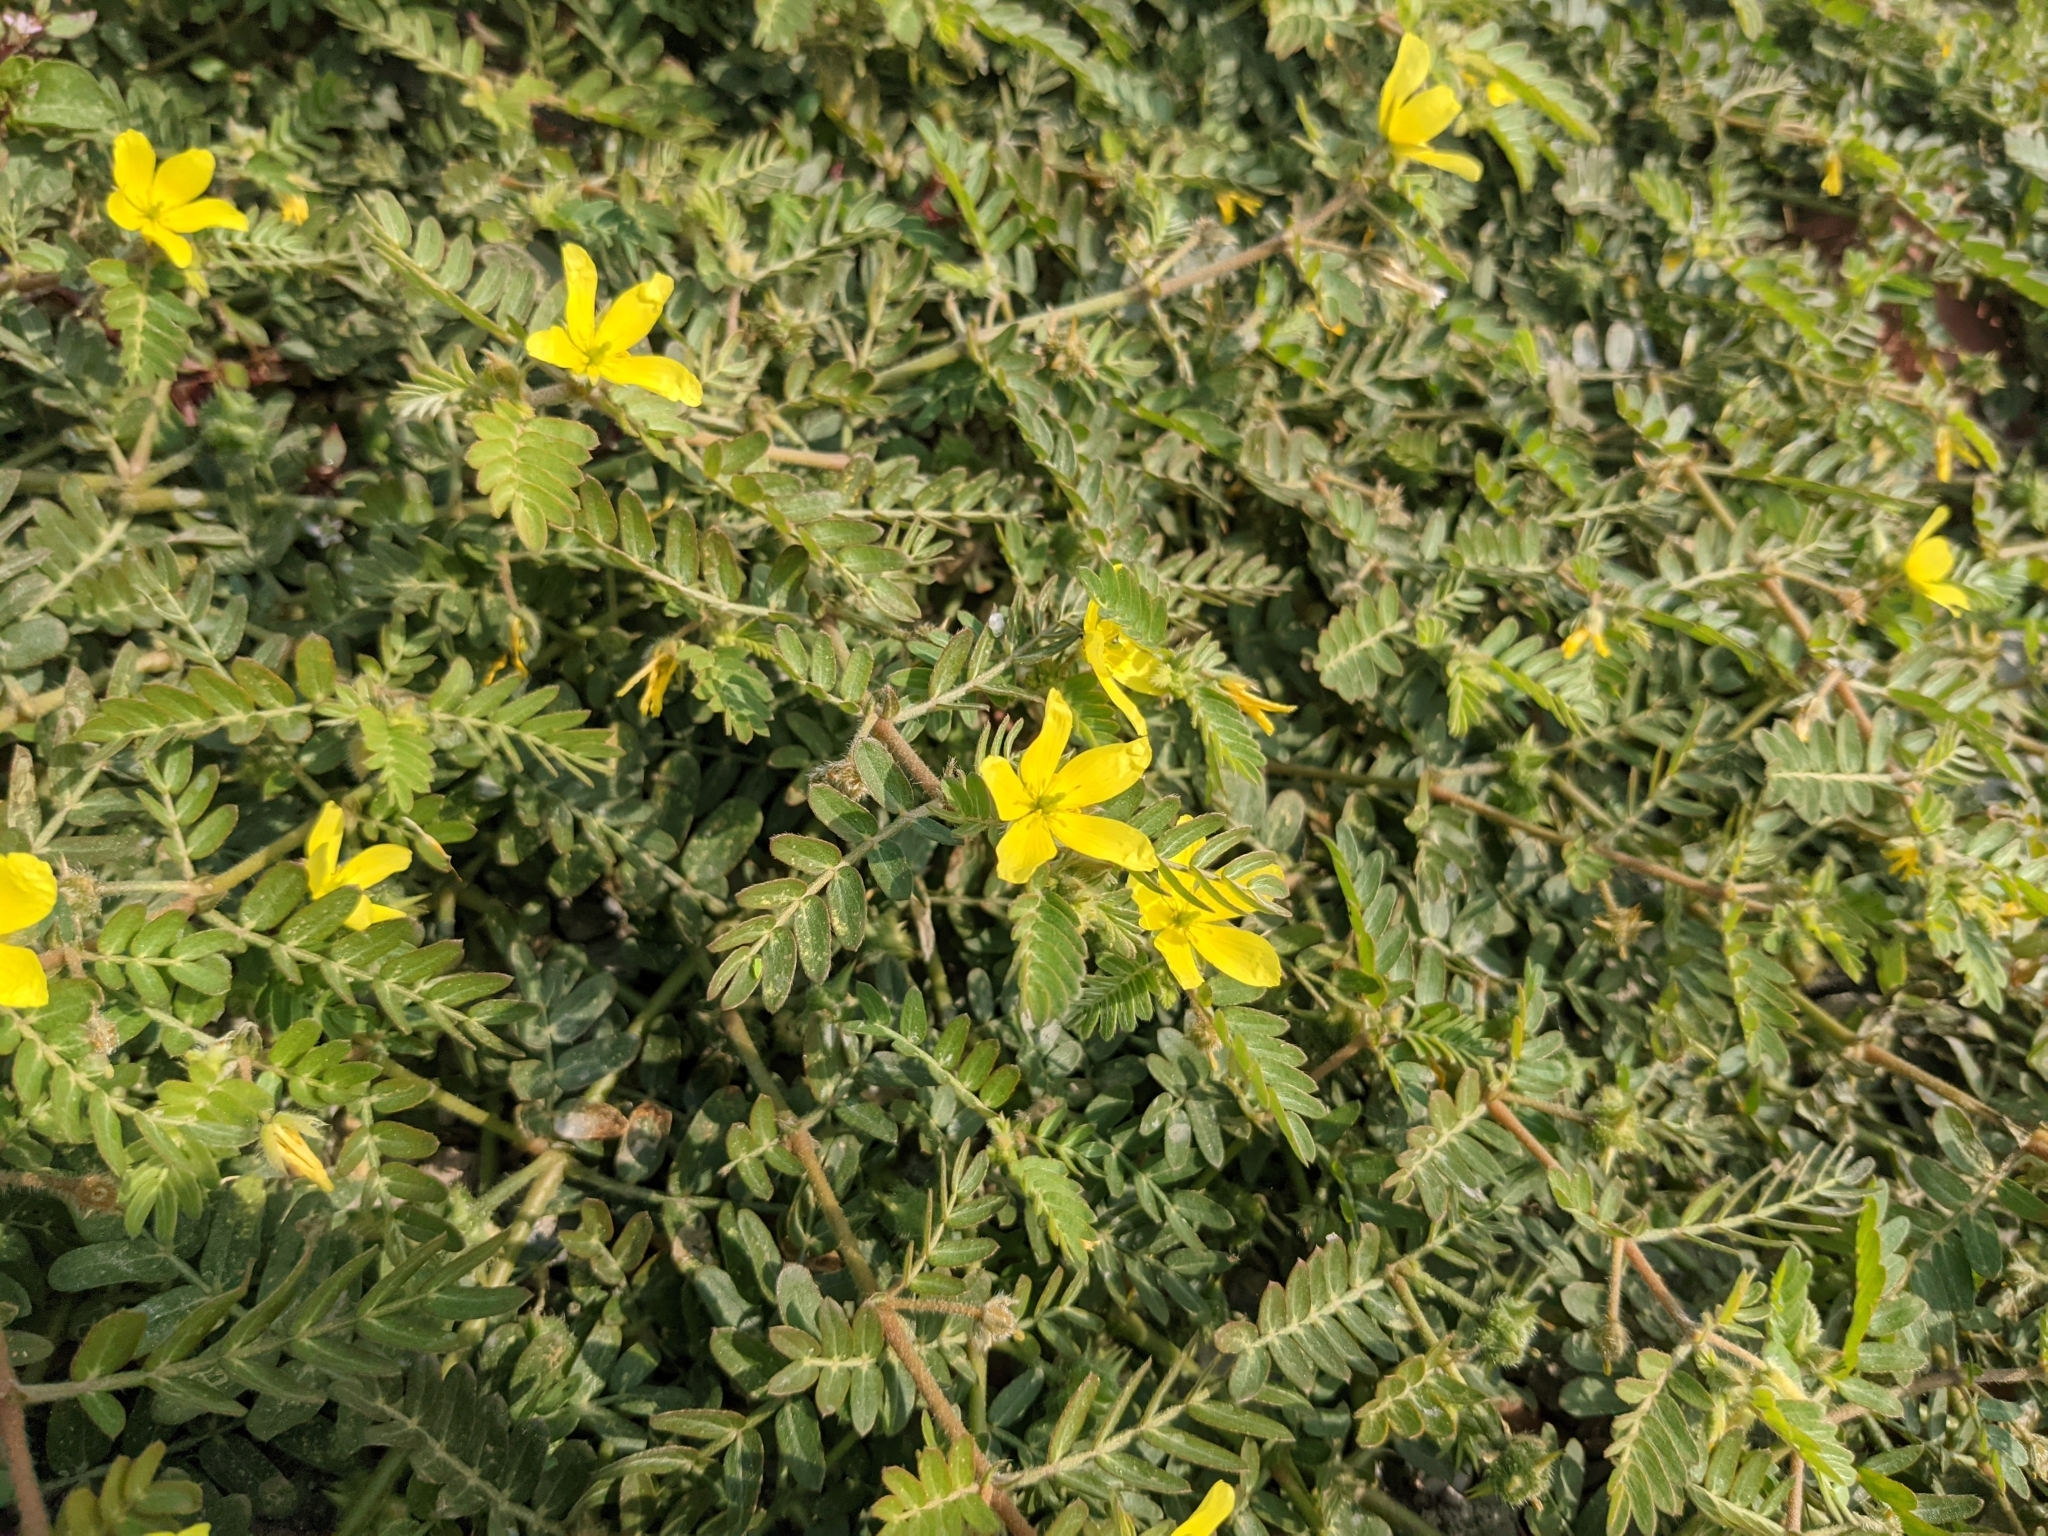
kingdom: Plantae
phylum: Tracheophyta
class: Magnoliopsida
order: Zygophyllales
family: Zygophyllaceae
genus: Tribulus
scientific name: Tribulus cistoides
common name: Jamaican feverplant
